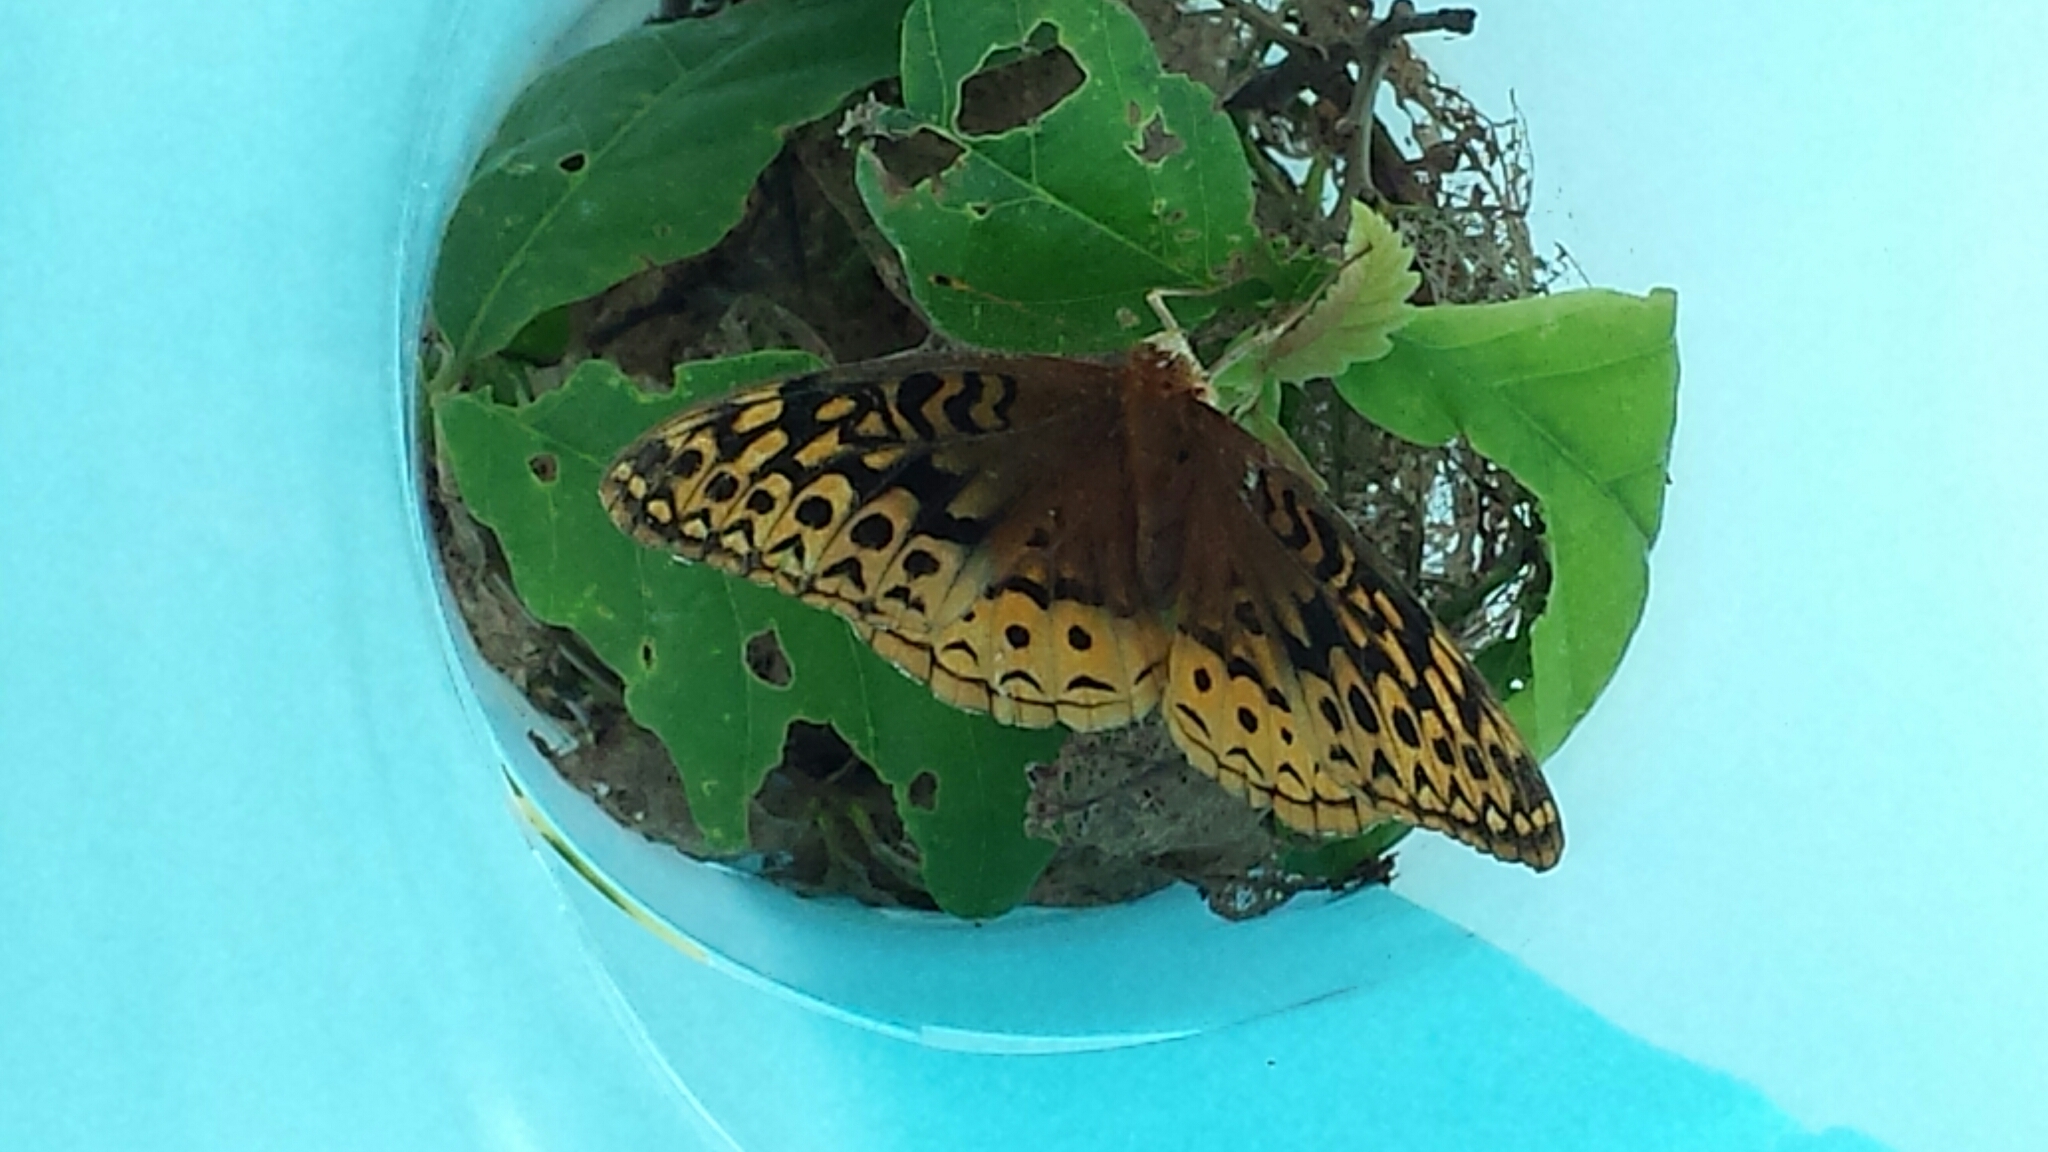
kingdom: Animalia
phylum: Arthropoda
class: Insecta
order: Lepidoptera
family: Nymphalidae
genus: Speyeria
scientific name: Speyeria cybele
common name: Great spangled fritillary
